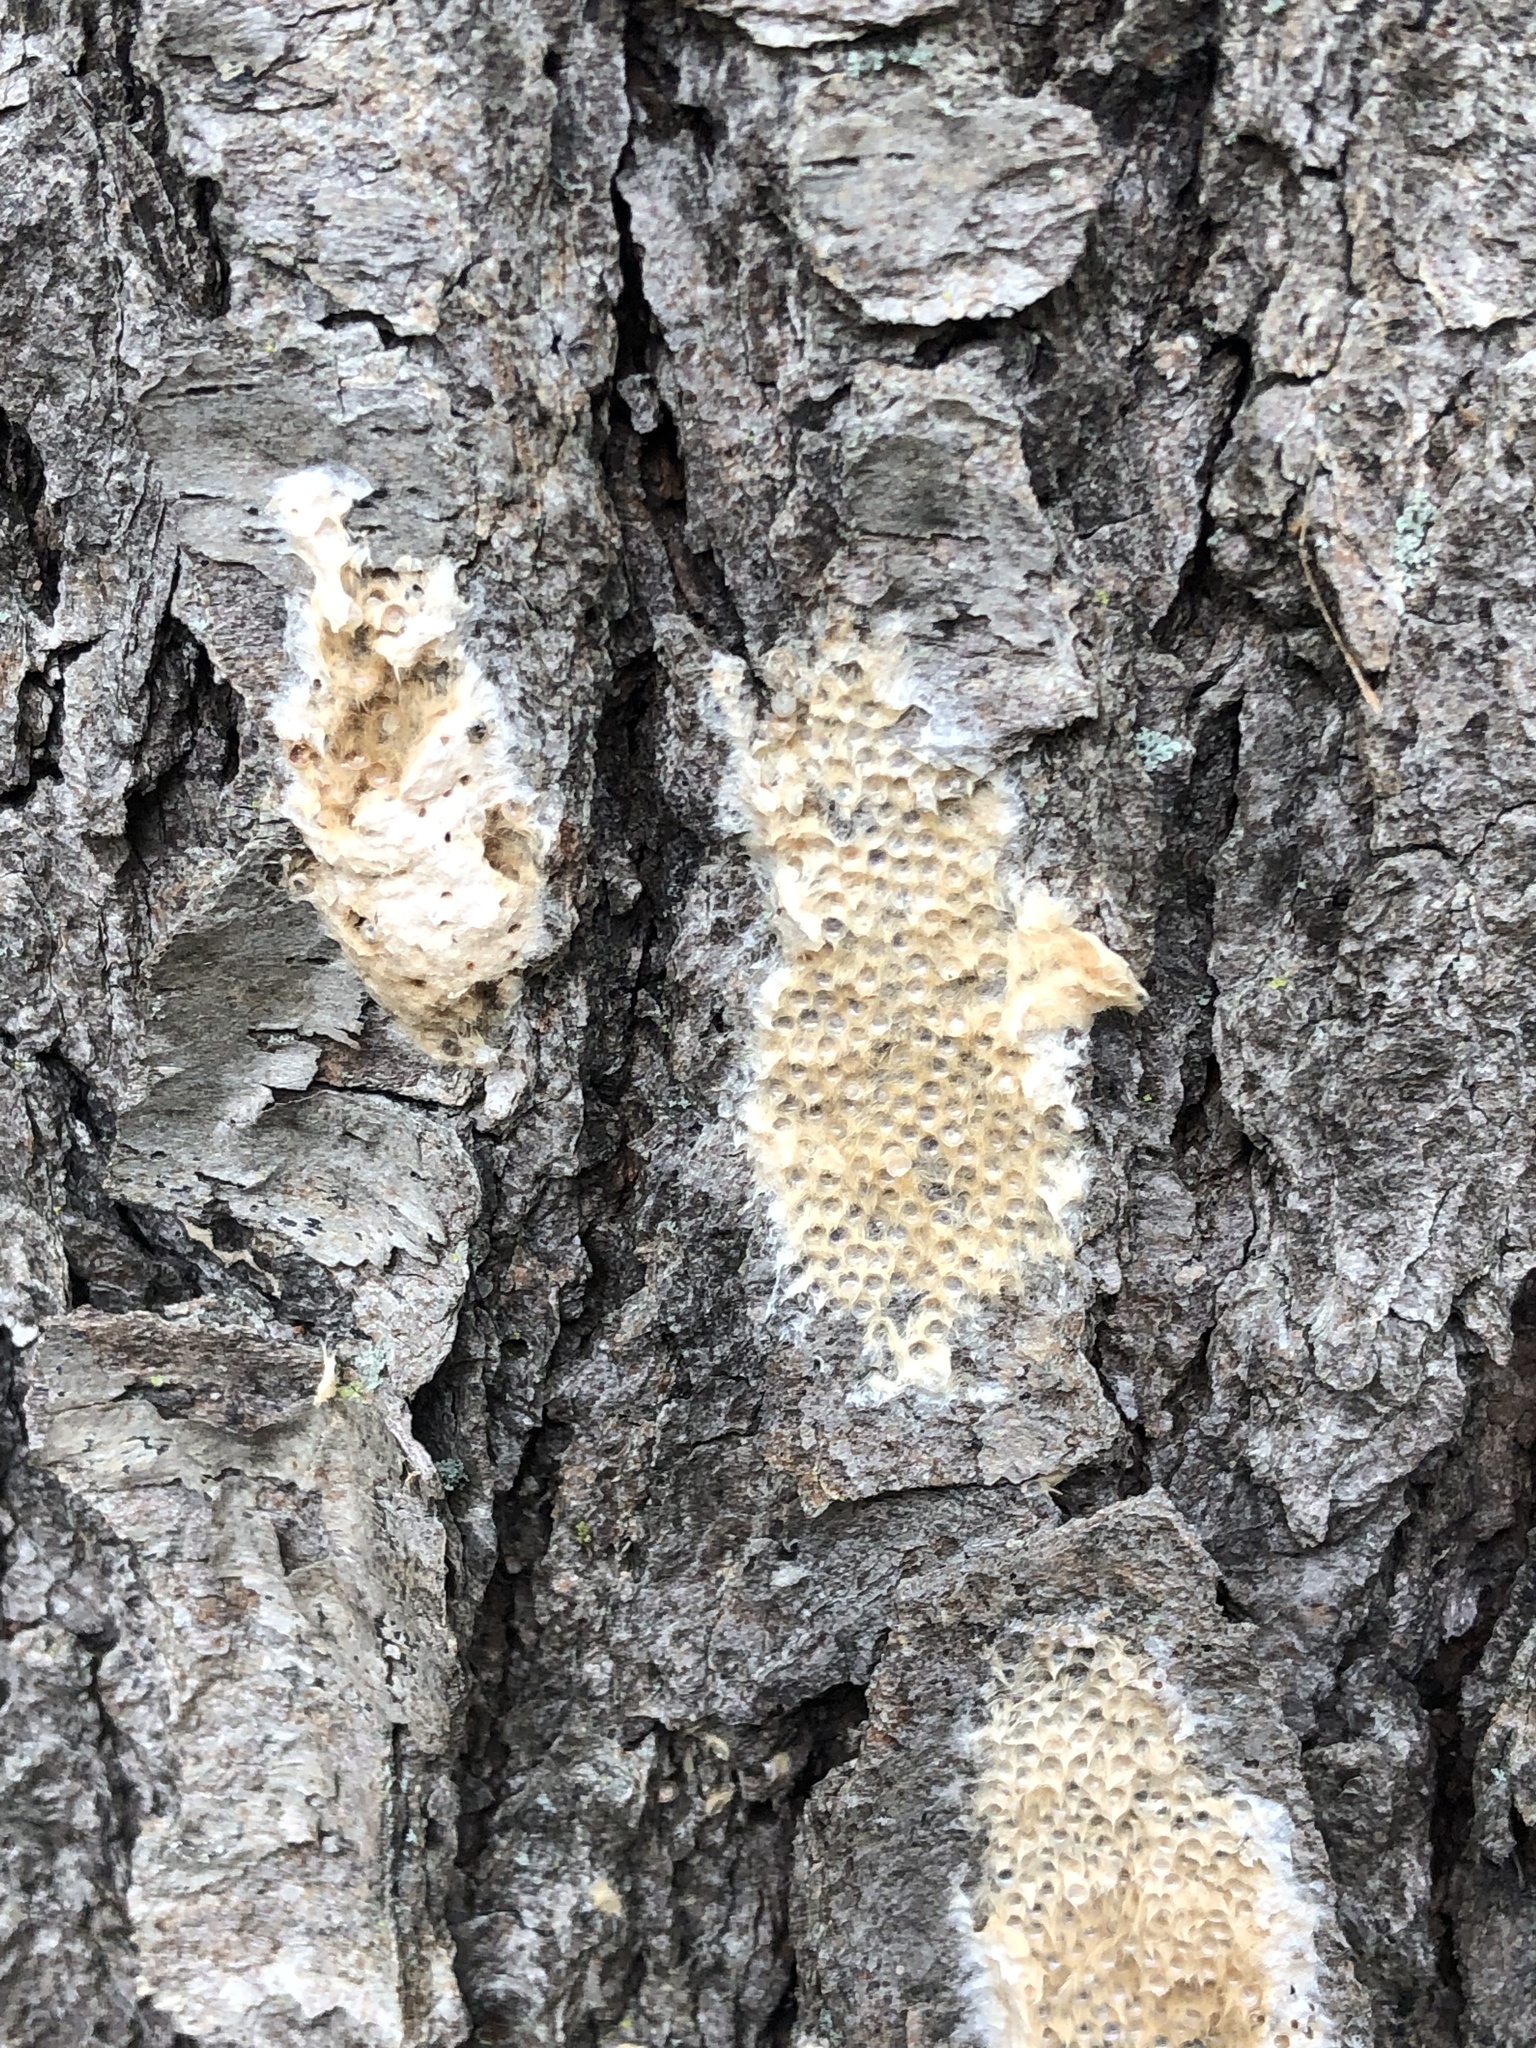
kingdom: Animalia
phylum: Arthropoda
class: Insecta
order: Lepidoptera
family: Erebidae
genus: Lymantria
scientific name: Lymantria dispar
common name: Gypsy moth
